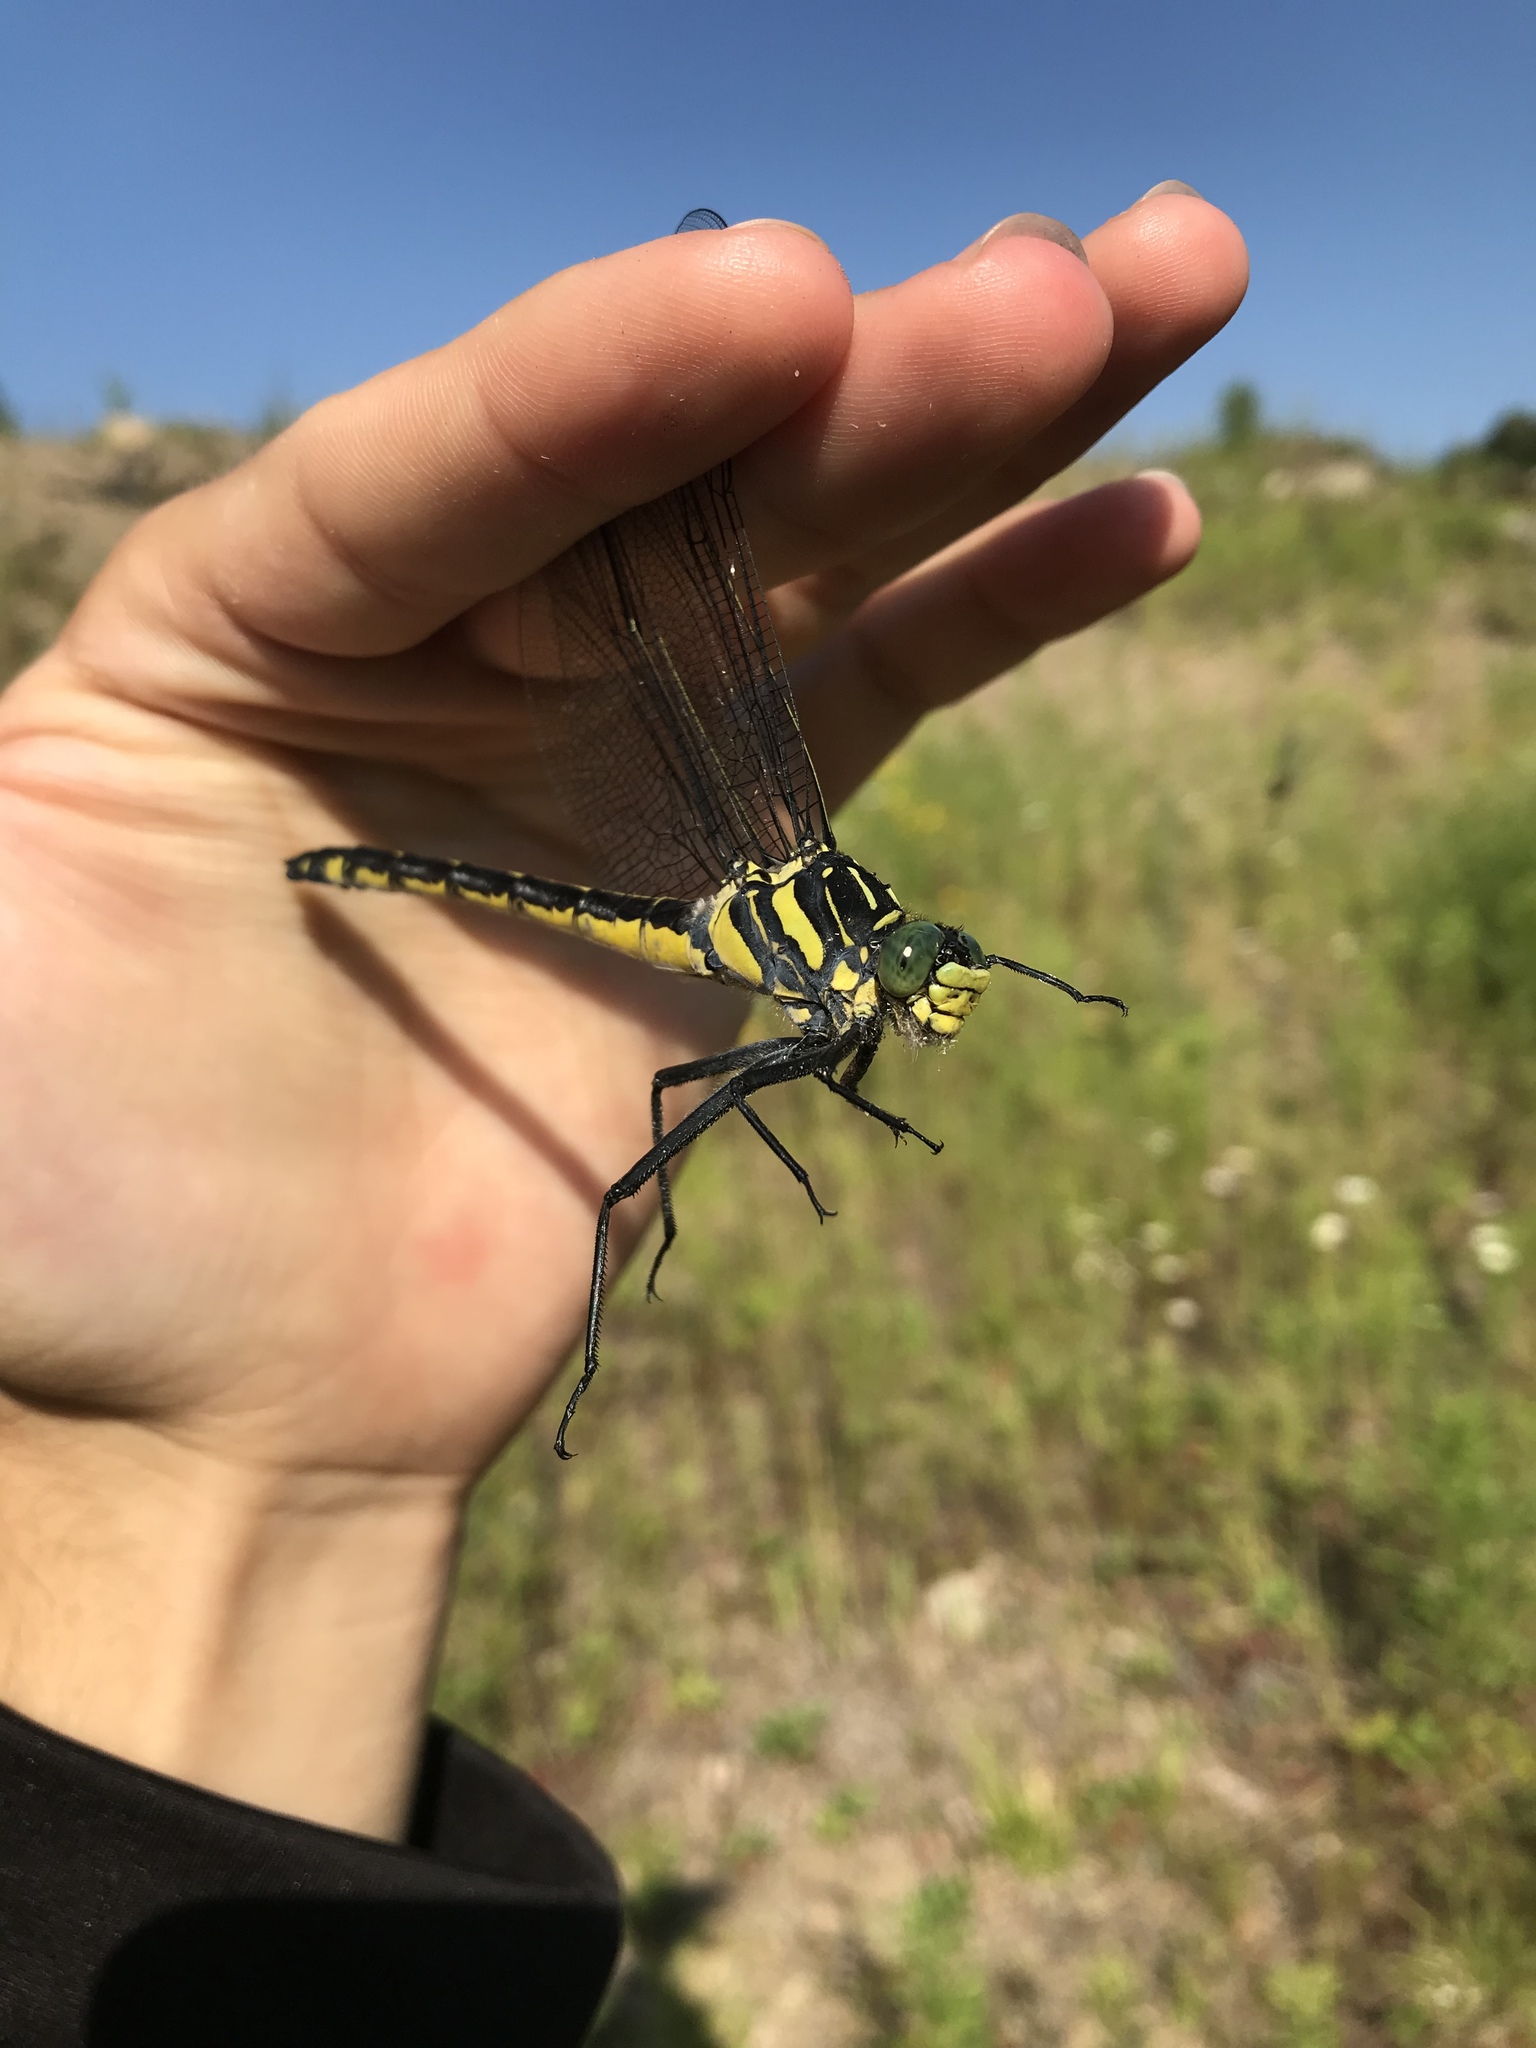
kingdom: Animalia
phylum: Arthropoda
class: Insecta
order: Odonata
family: Gomphidae
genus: Hagenius
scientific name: Hagenius brevistylus
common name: Dragonhunter
